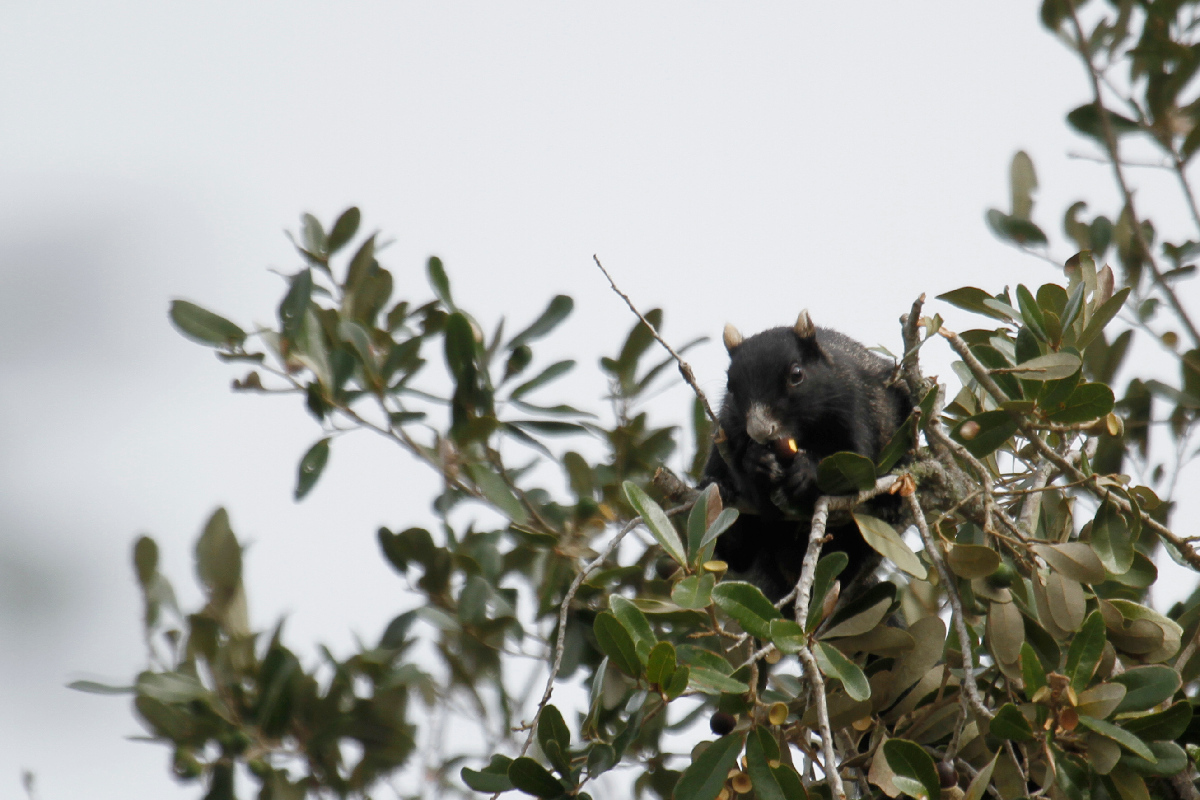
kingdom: Animalia
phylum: Chordata
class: Mammalia
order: Rodentia
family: Sciuridae
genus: Sciurus
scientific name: Sciurus niger
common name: Fox squirrel
